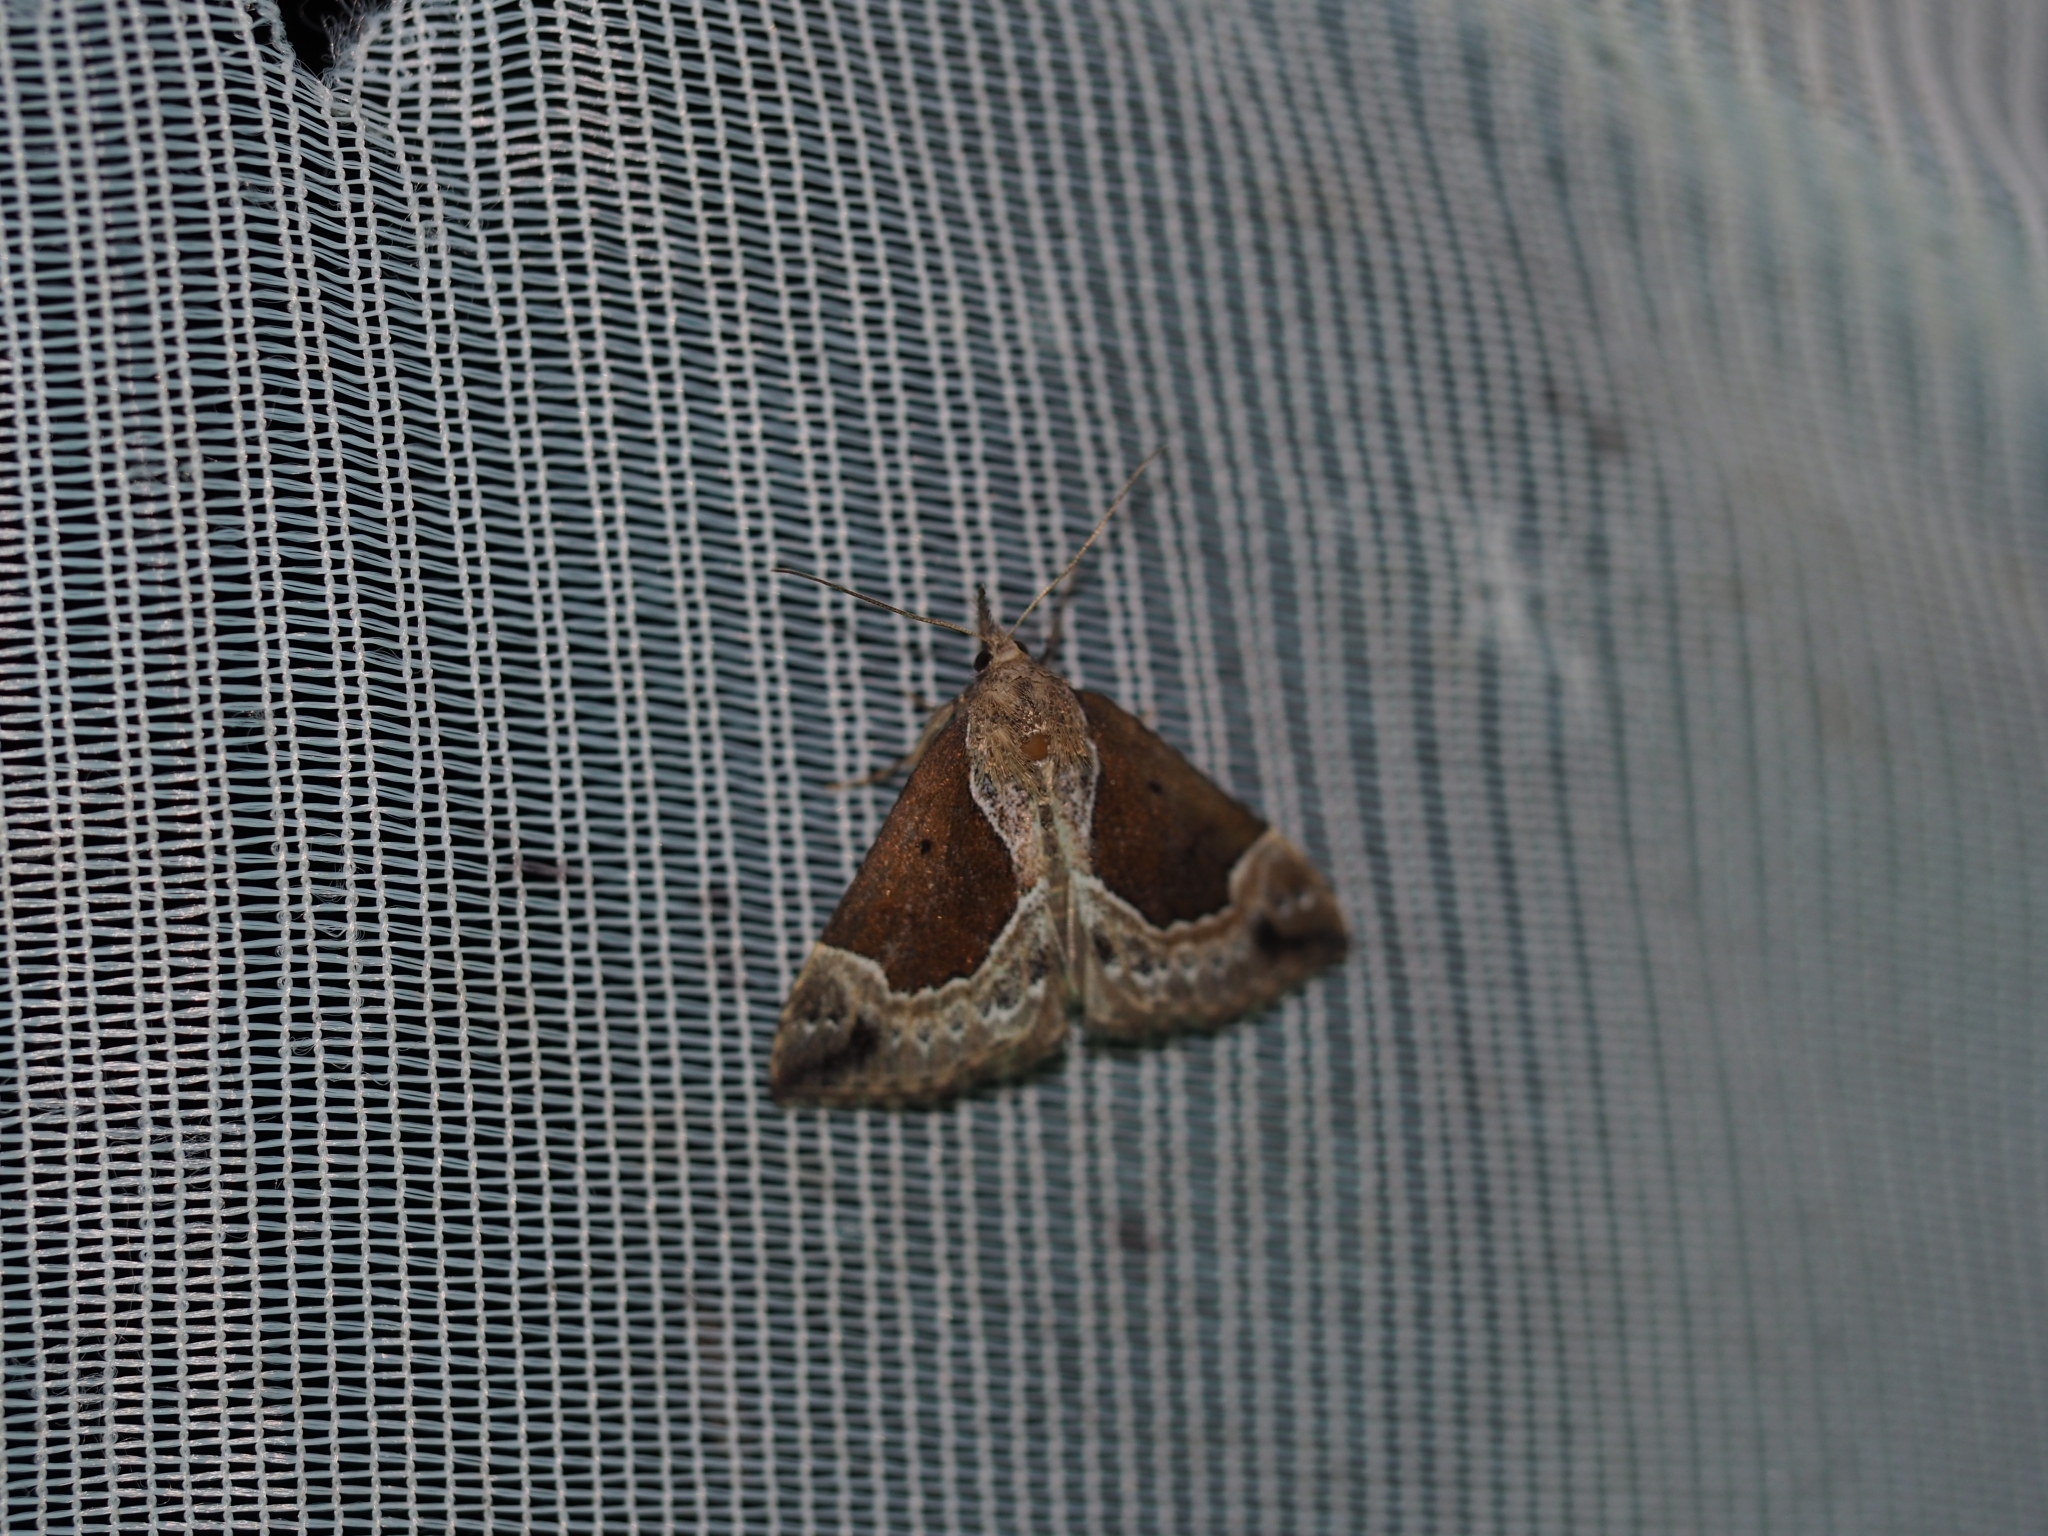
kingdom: Animalia
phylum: Arthropoda
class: Insecta
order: Lepidoptera
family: Erebidae
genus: Hypena
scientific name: Hypena crassalis
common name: Beautiful snout
